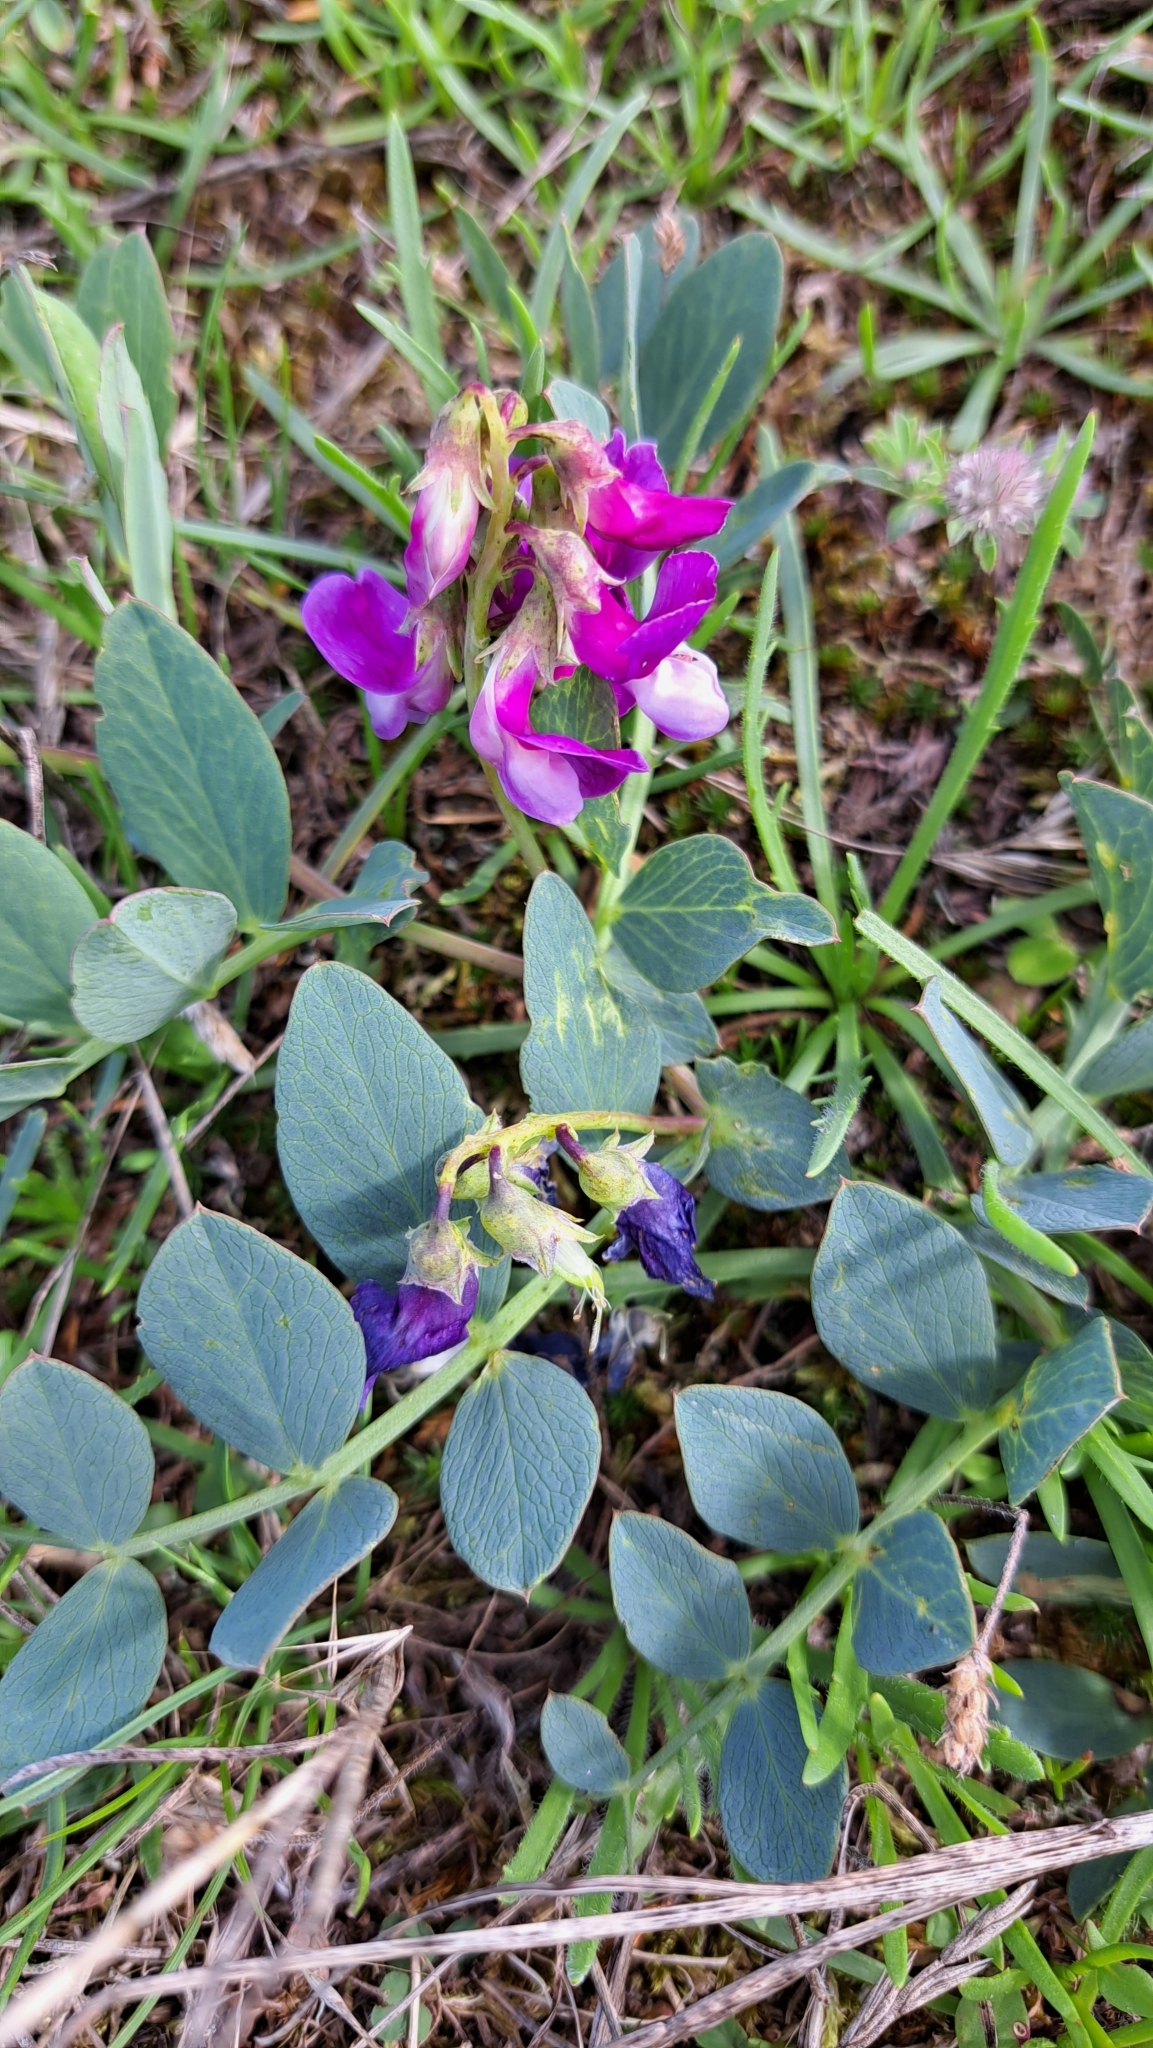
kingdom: Plantae
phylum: Tracheophyta
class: Magnoliopsida
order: Fabales
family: Fabaceae
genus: Lathyrus
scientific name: Lathyrus japonicus
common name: Sea pea
